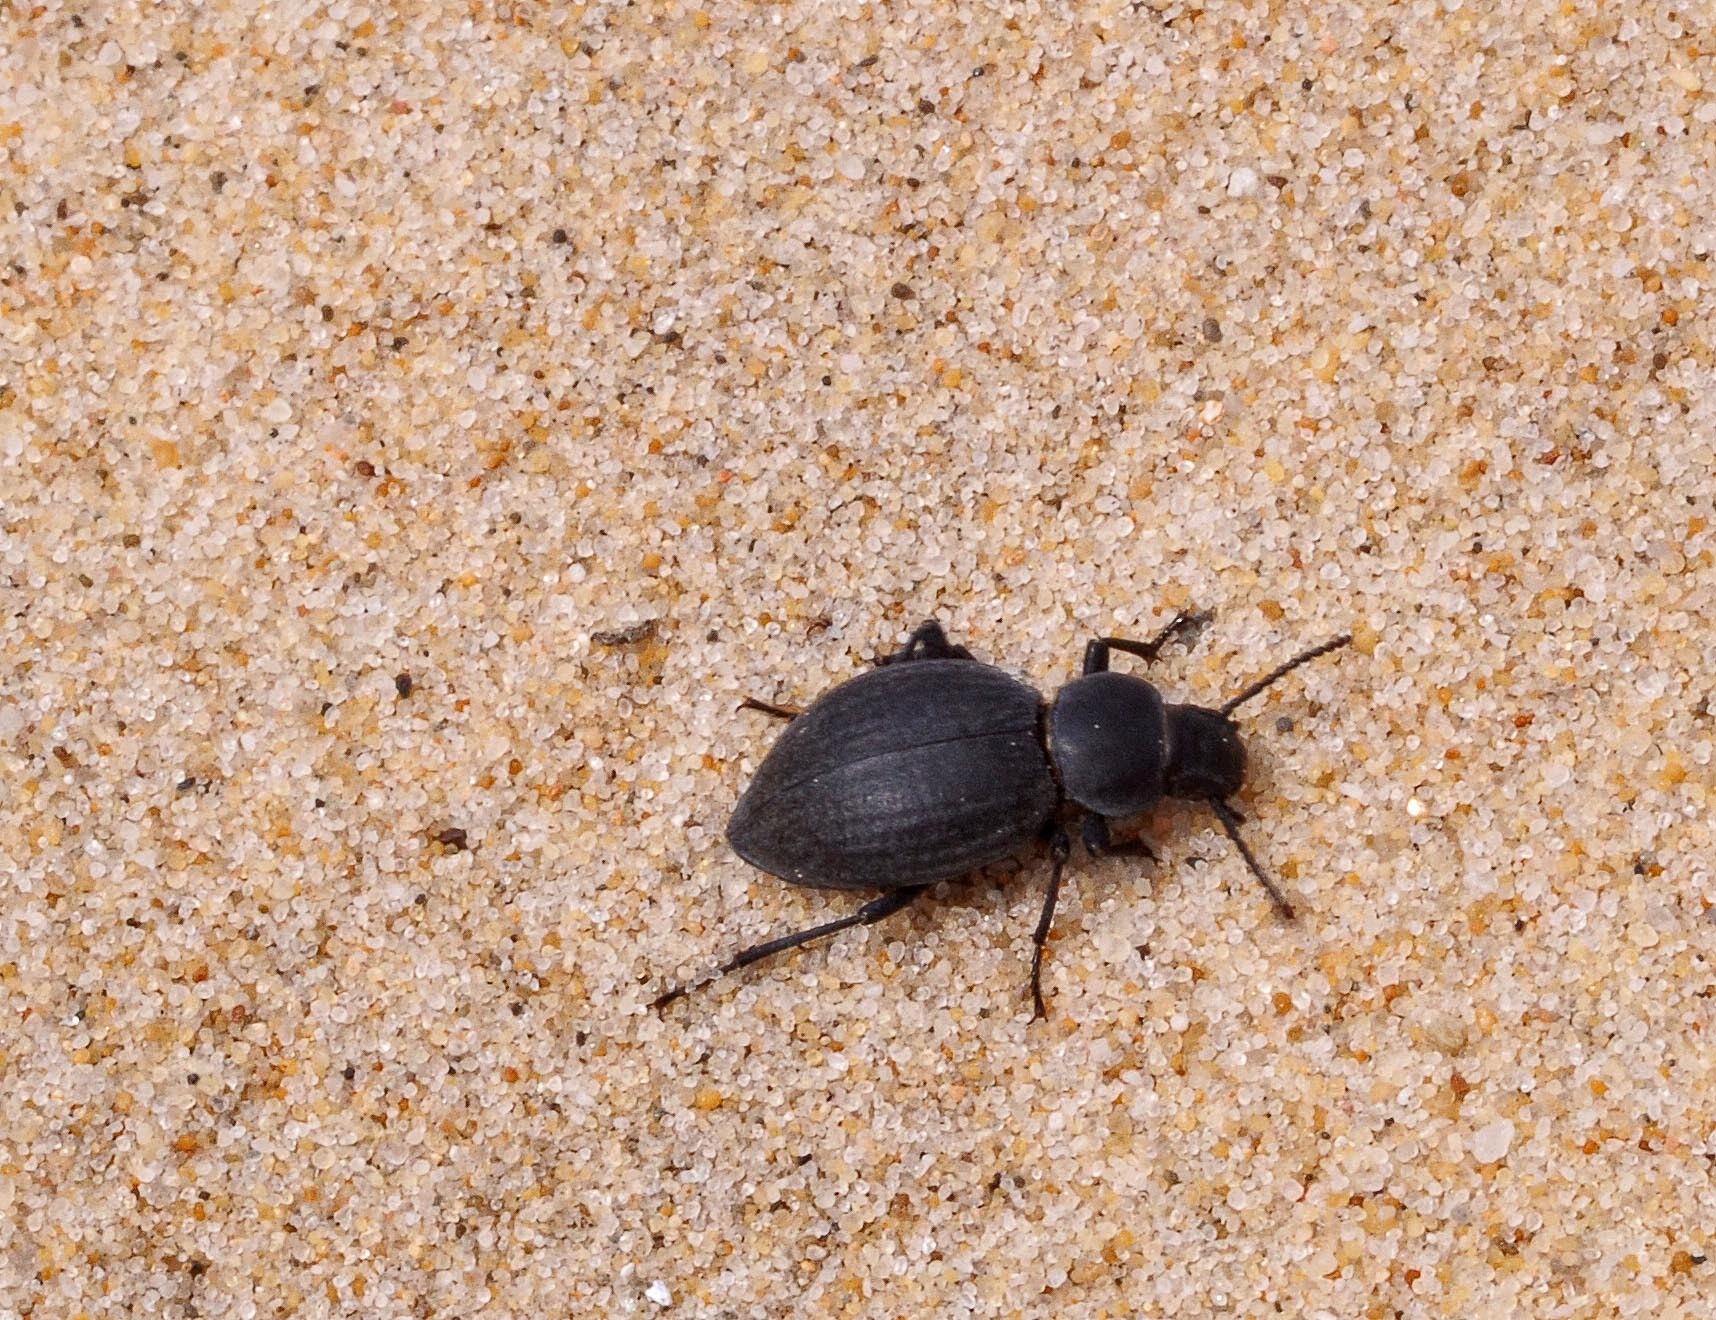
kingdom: Animalia
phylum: Arthropoda
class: Insecta
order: Coleoptera
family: Tenebrionidae
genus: Tentyria
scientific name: Tentyria interrupta
